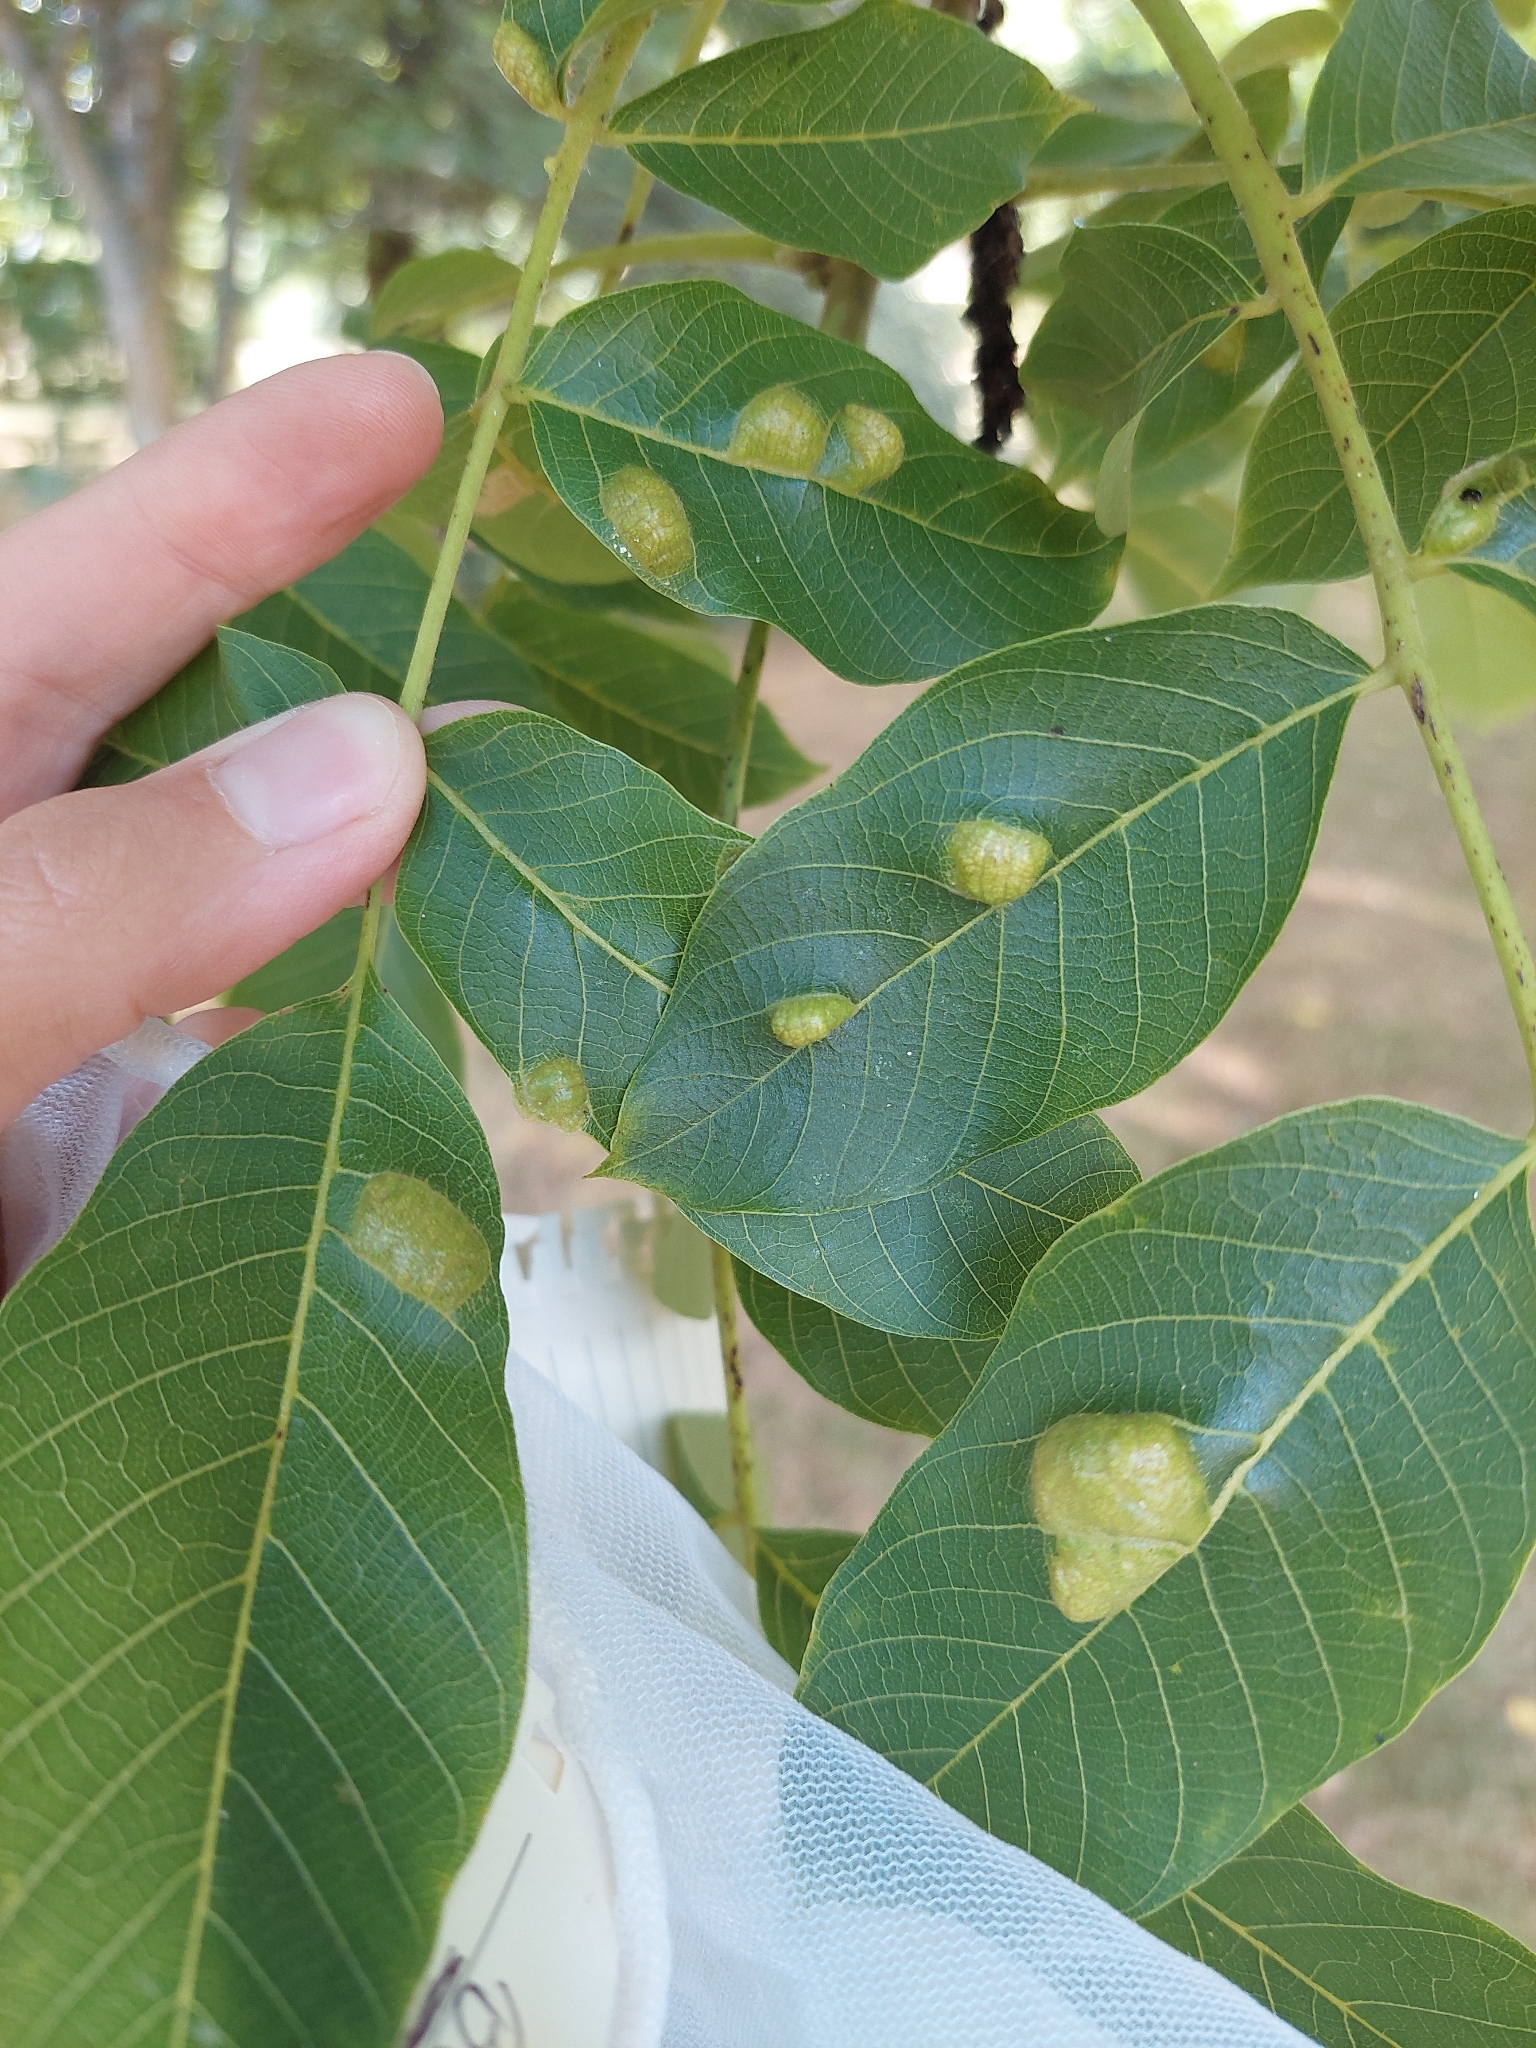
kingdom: Animalia
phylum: Arthropoda
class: Arachnida
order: Trombidiformes
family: Eriophyidae
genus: Aceria
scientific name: Aceria erinea
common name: Persian walnut erineum mite
